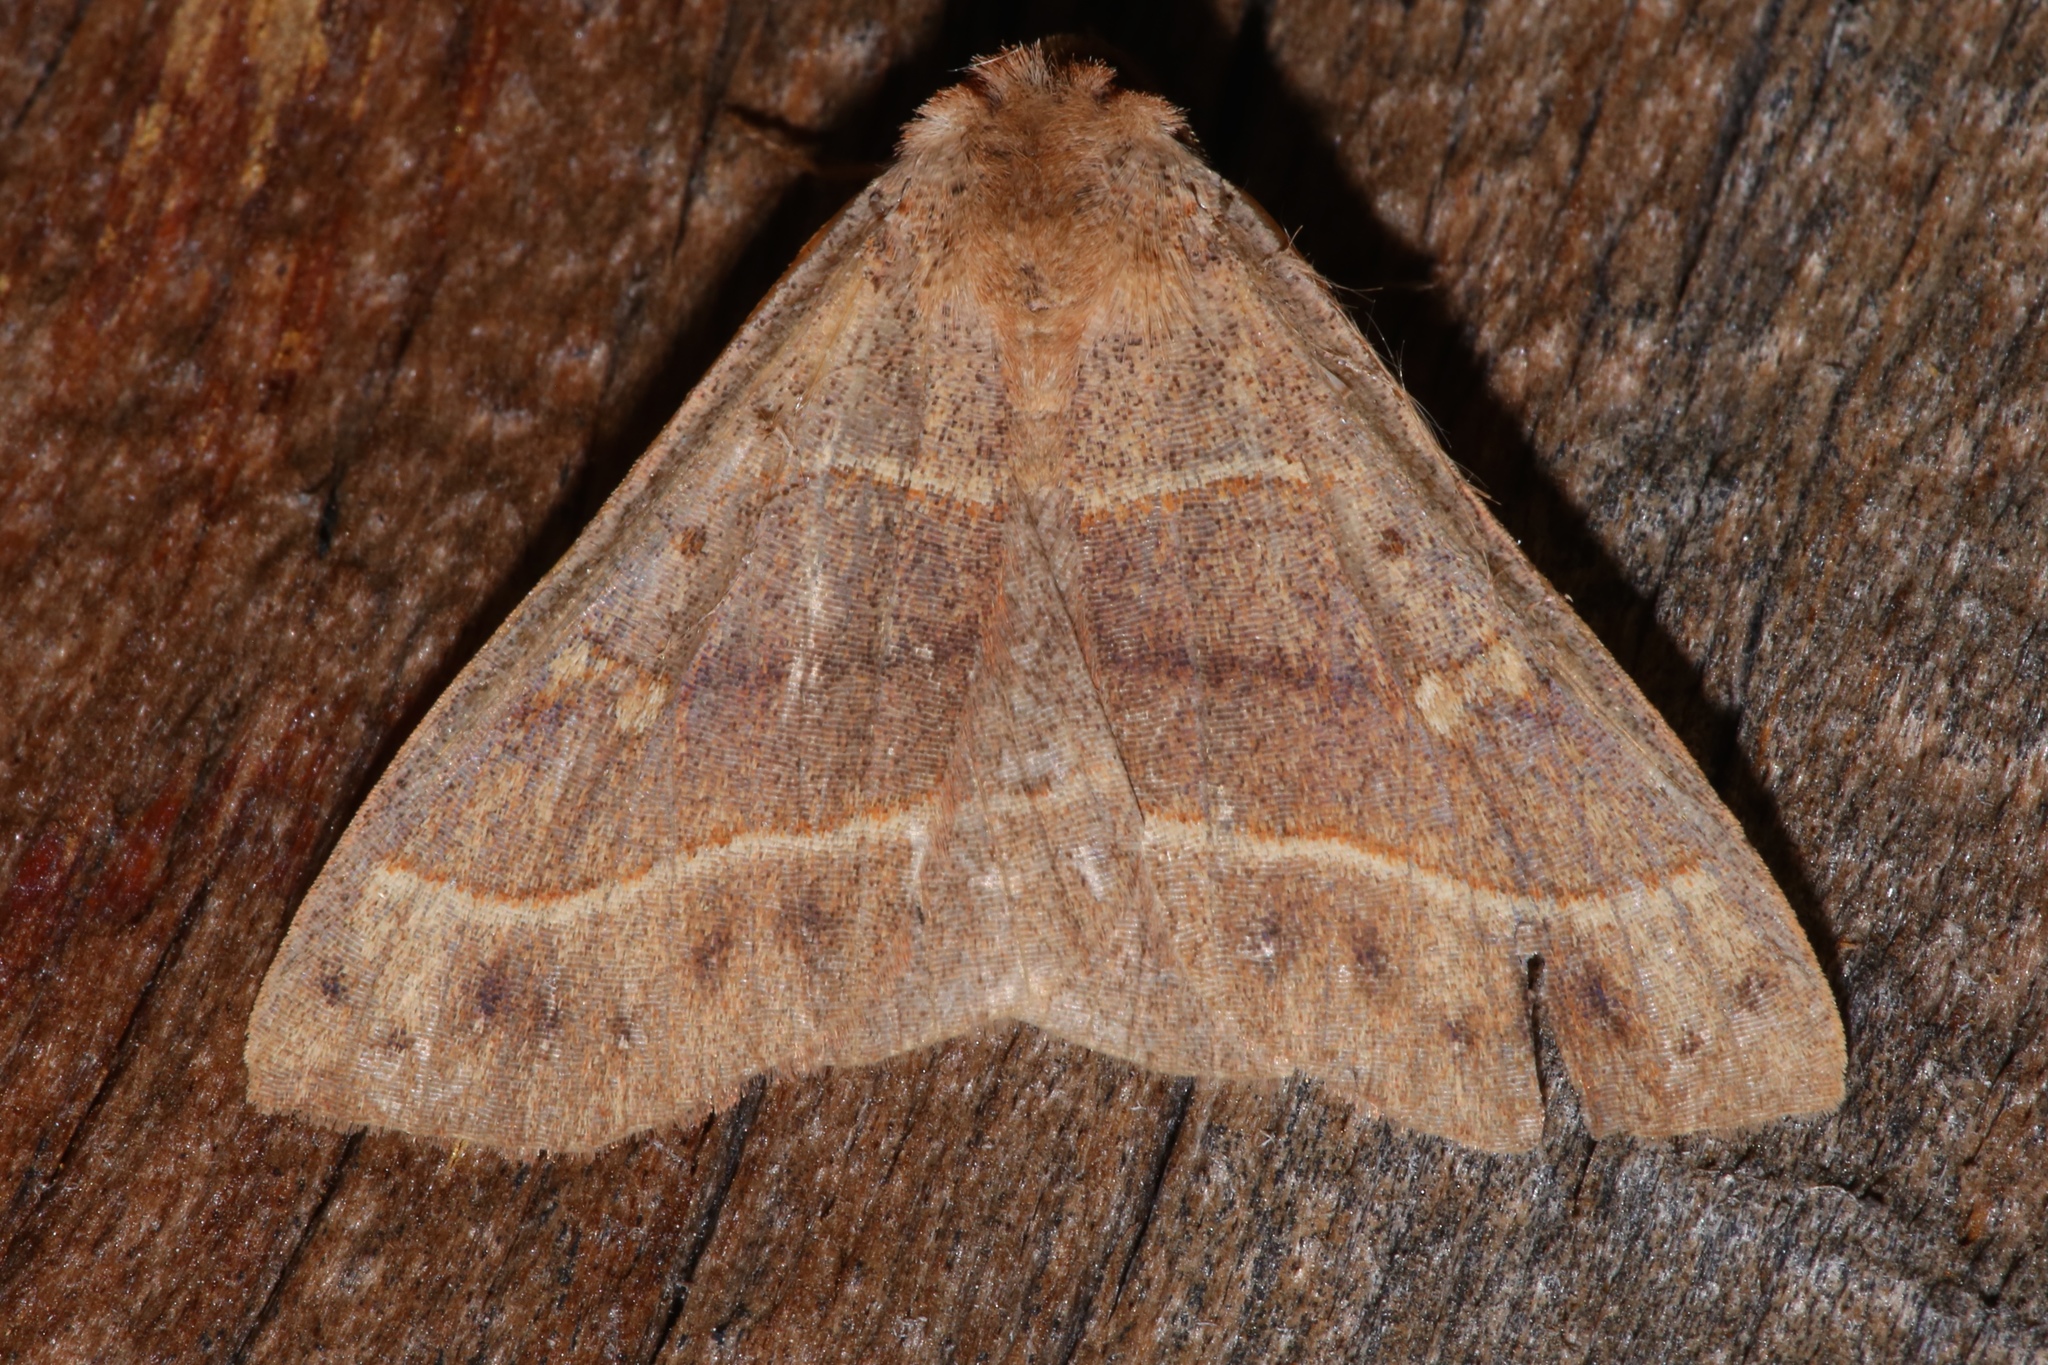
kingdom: Animalia
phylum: Arthropoda
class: Insecta
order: Lepidoptera
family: Erebidae
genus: Panopoda
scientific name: Panopoda rufimargo
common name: Red-lined panopoda moth
